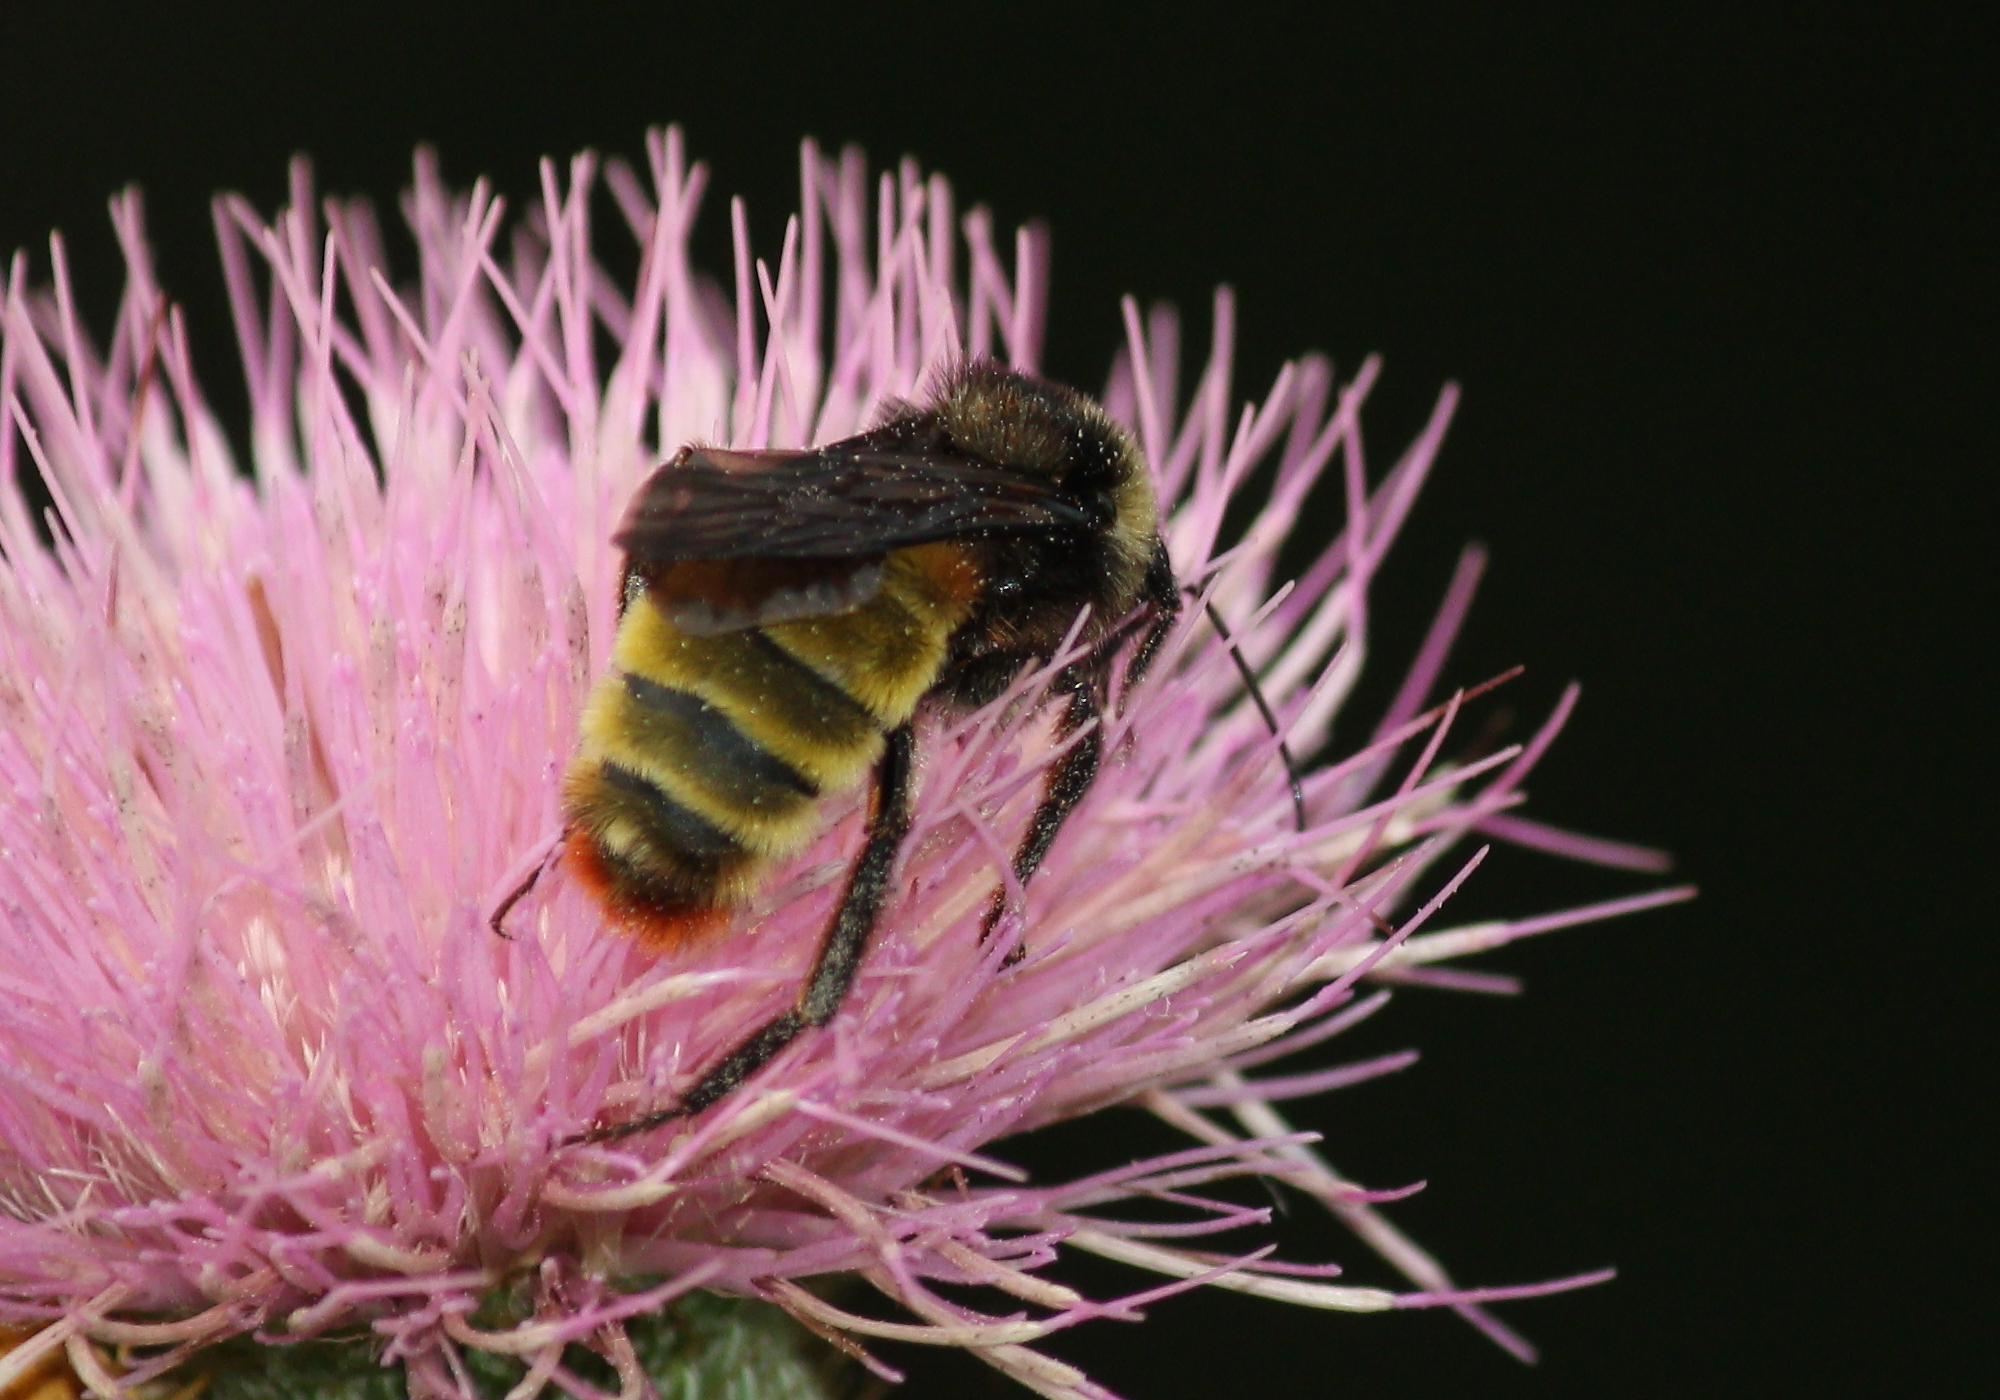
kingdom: Animalia
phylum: Arthropoda
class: Insecta
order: Hymenoptera
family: Apidae
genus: Bombus
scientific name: Bombus pensylvanicus
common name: Bumble bee
